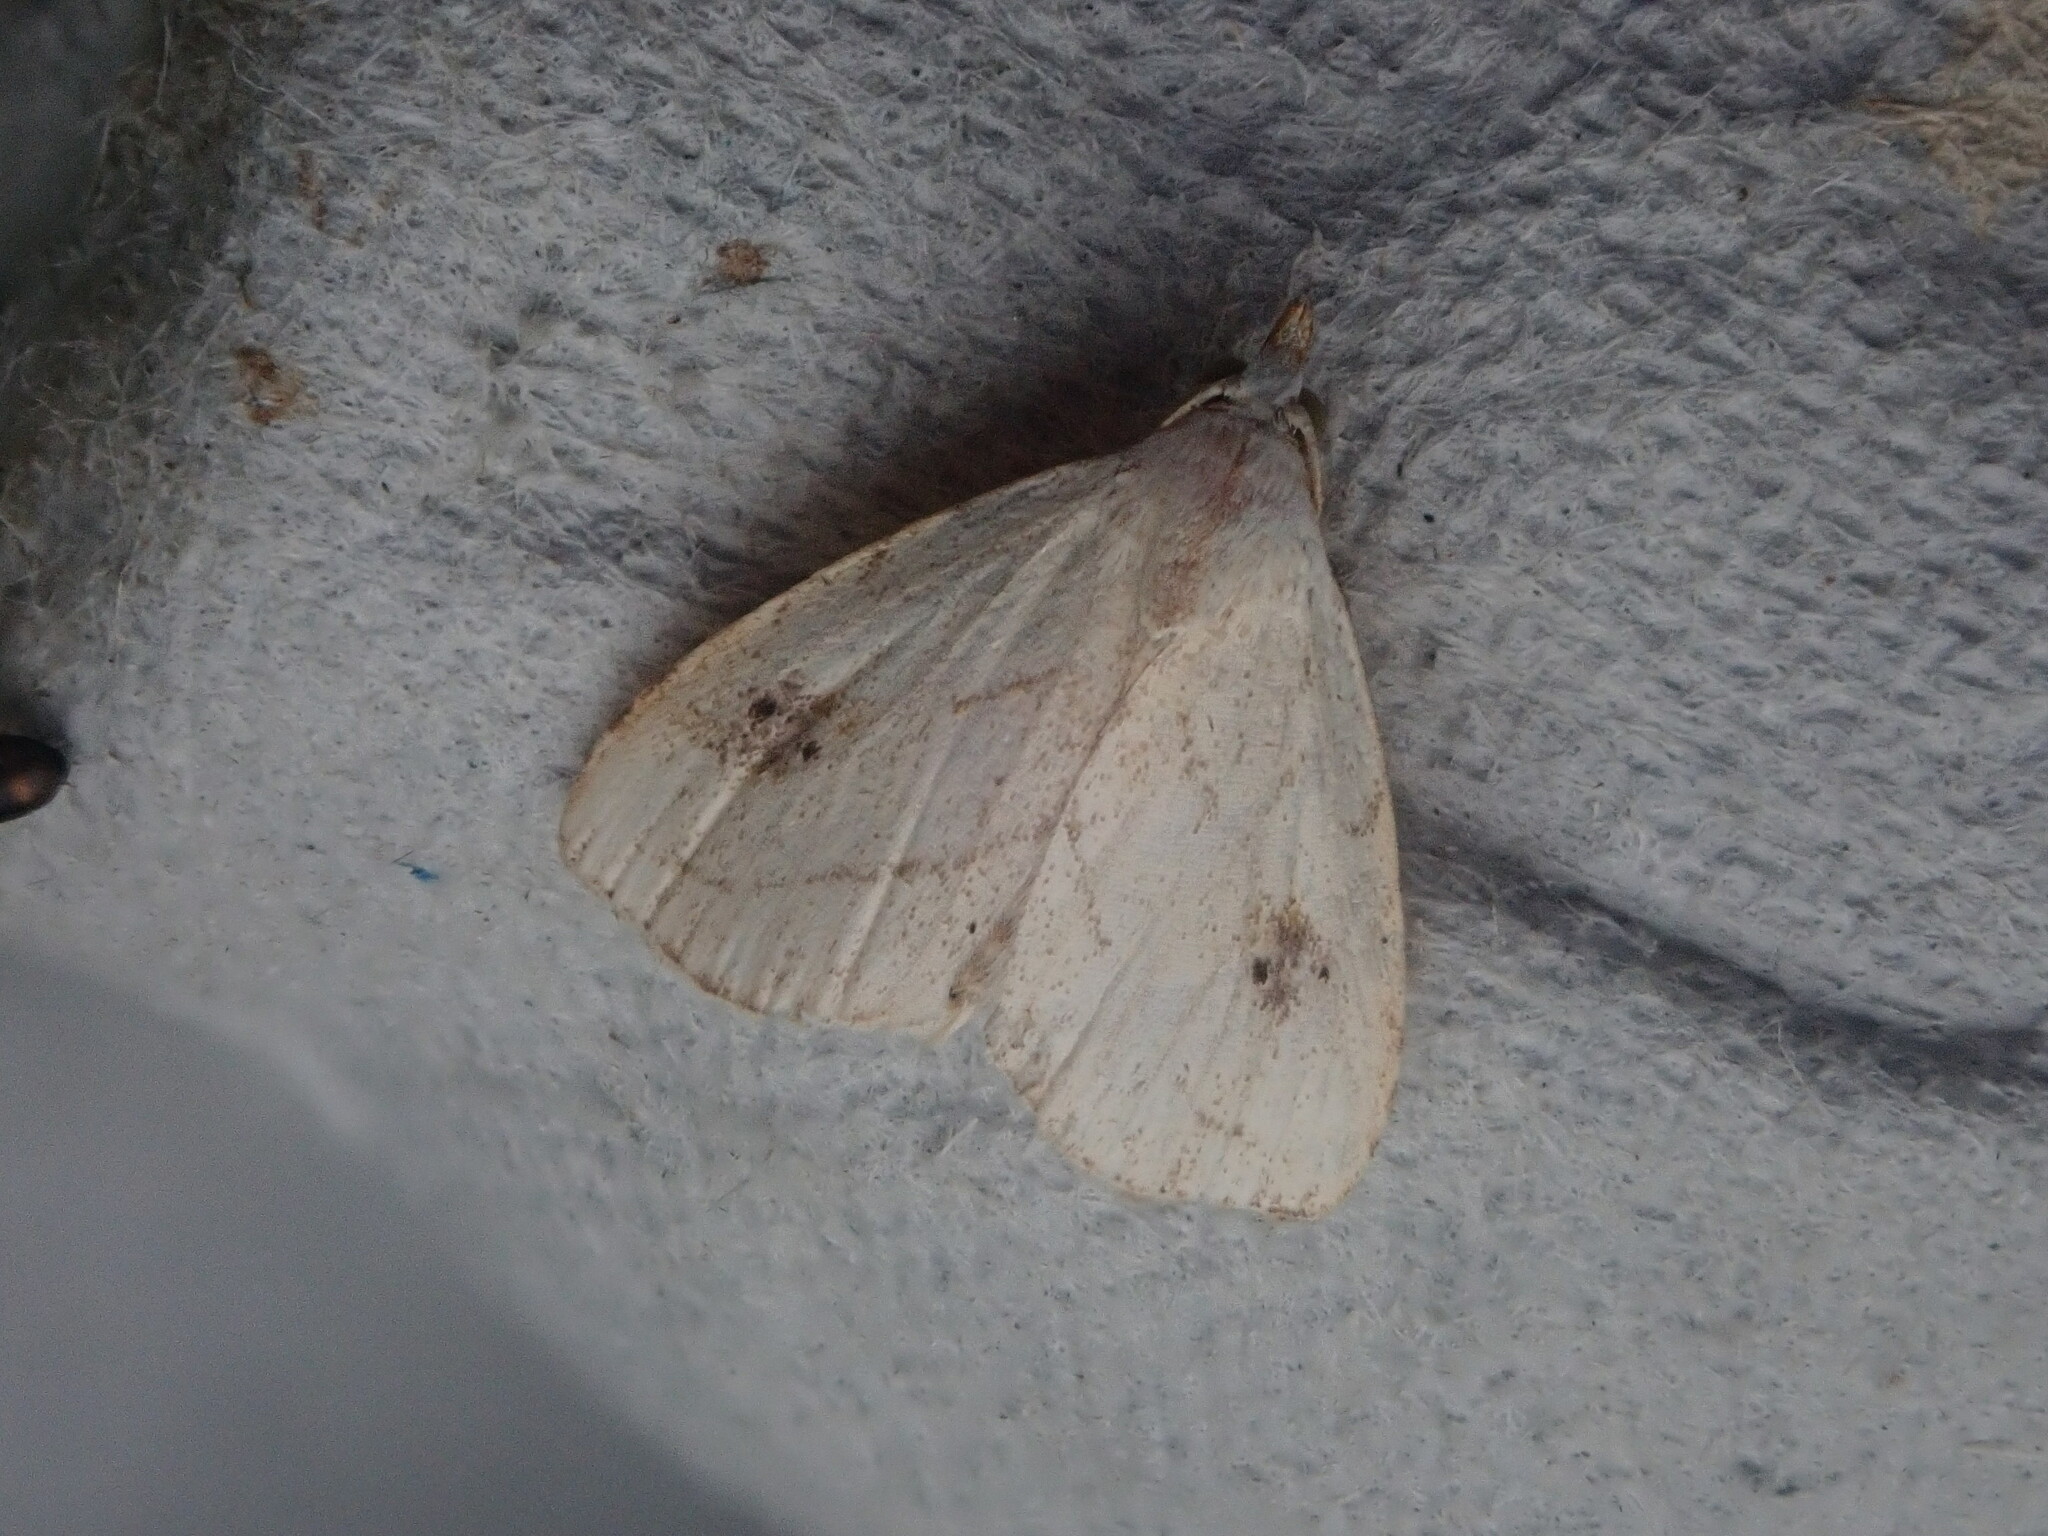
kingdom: Animalia
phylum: Arthropoda
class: Insecta
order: Lepidoptera
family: Erebidae
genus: Rivula
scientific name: Rivula propinqualis
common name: Spotted grass moth
